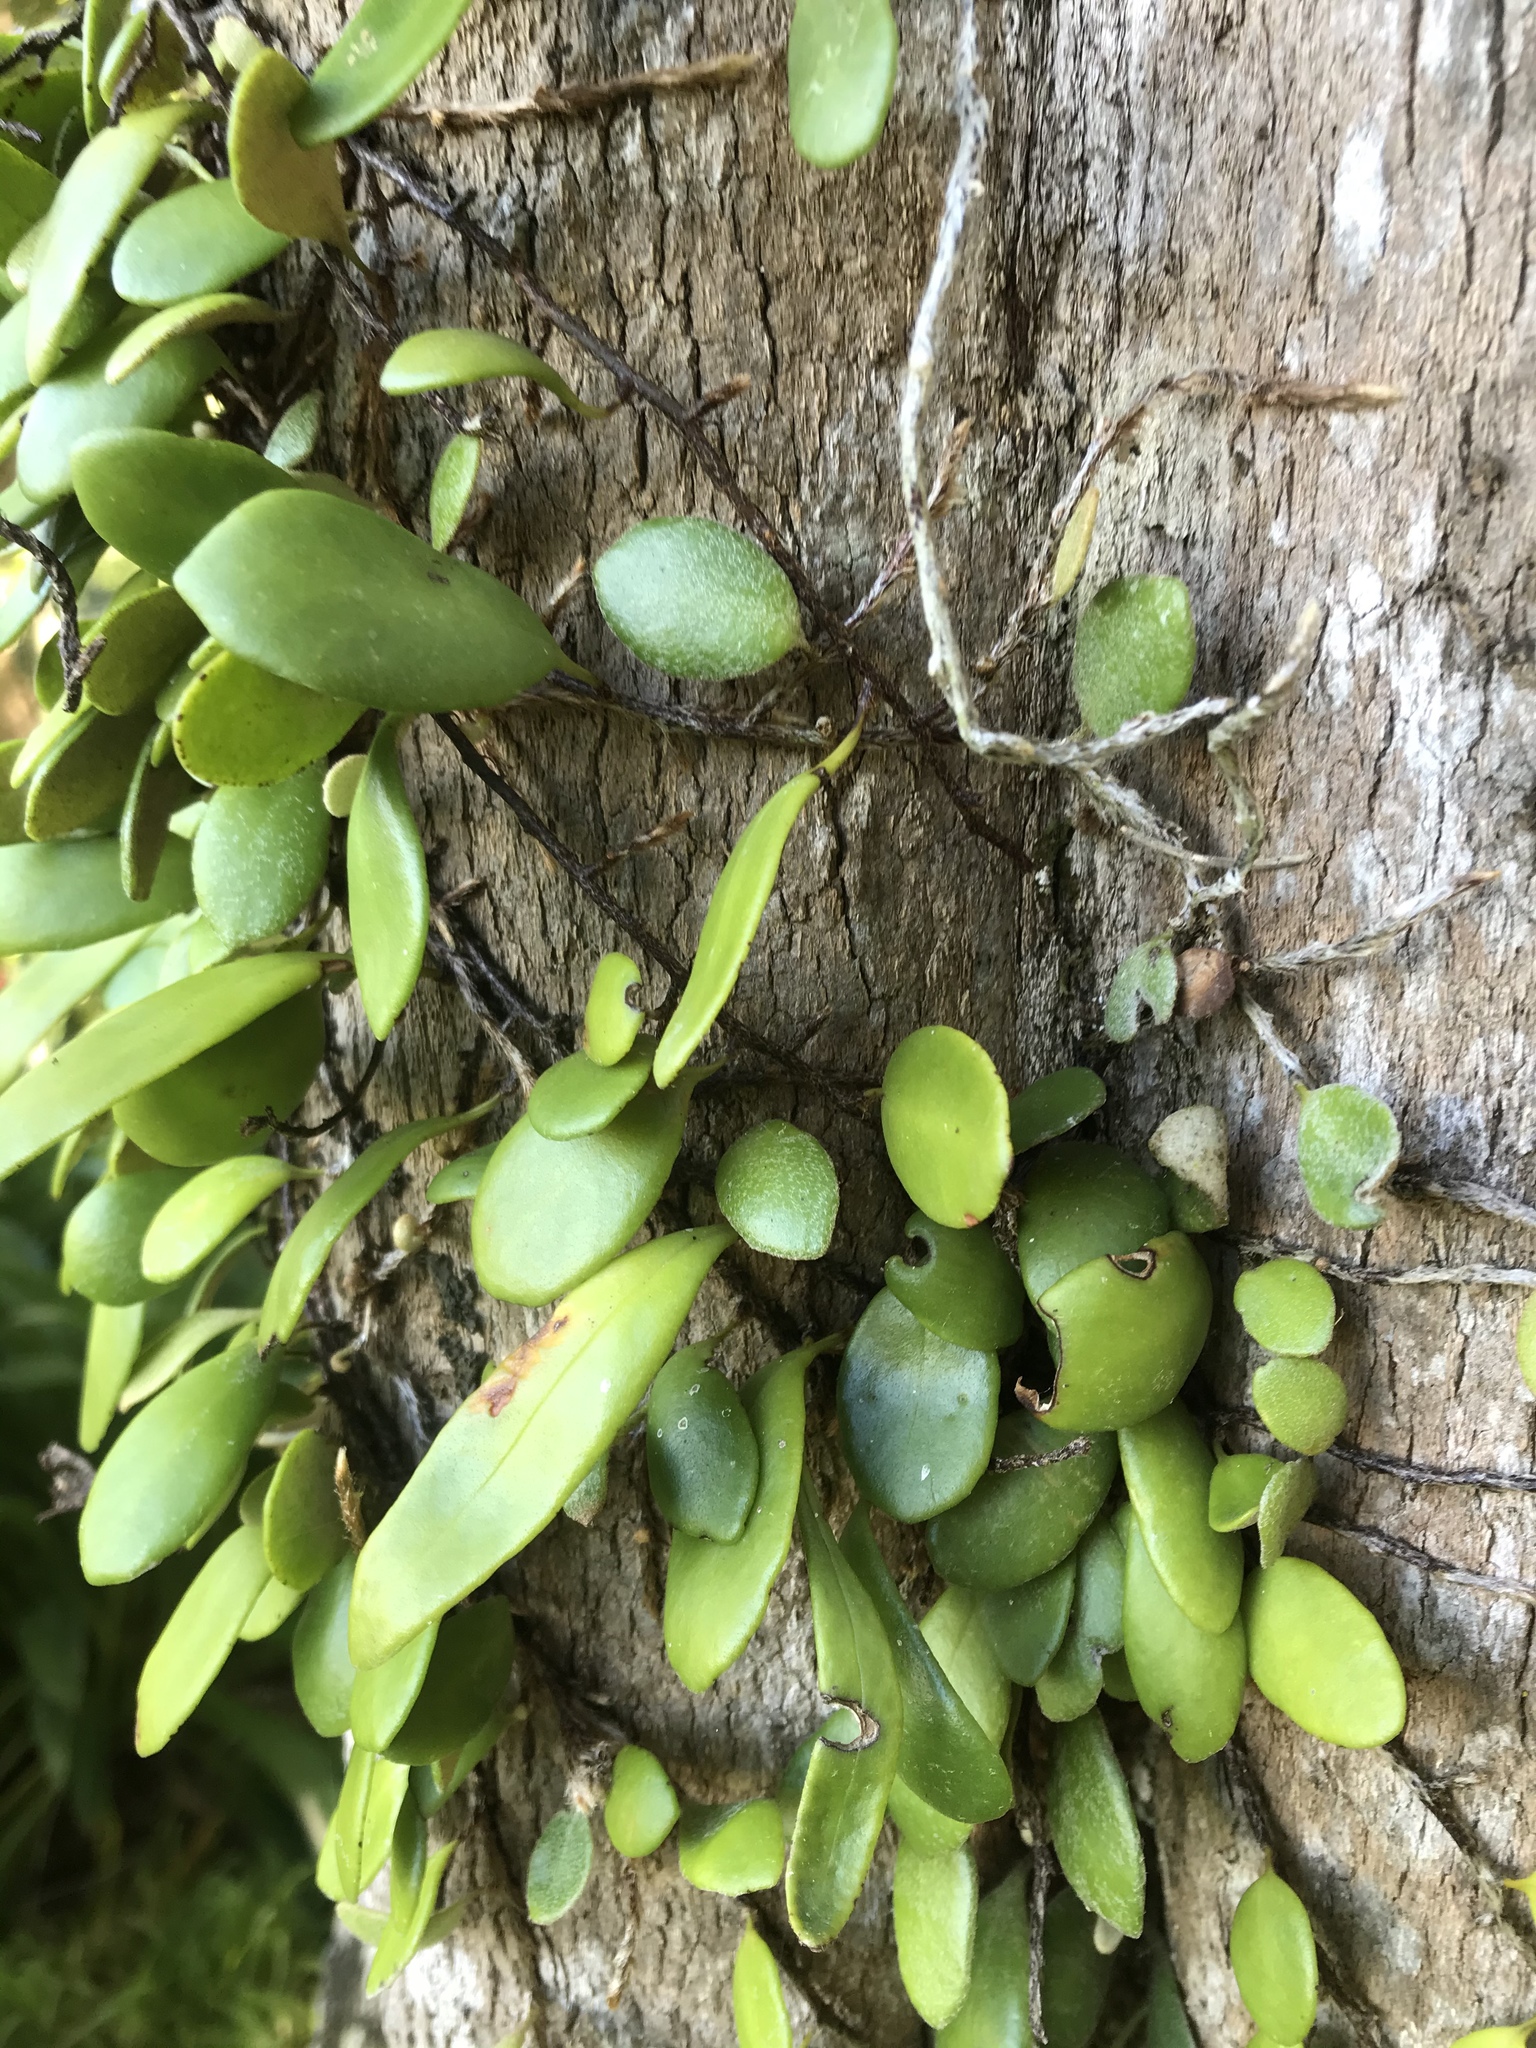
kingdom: Plantae
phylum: Tracheophyta
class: Polypodiopsida
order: Polypodiales
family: Polypodiaceae
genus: Pyrrosia
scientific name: Pyrrosia eleagnifolia
